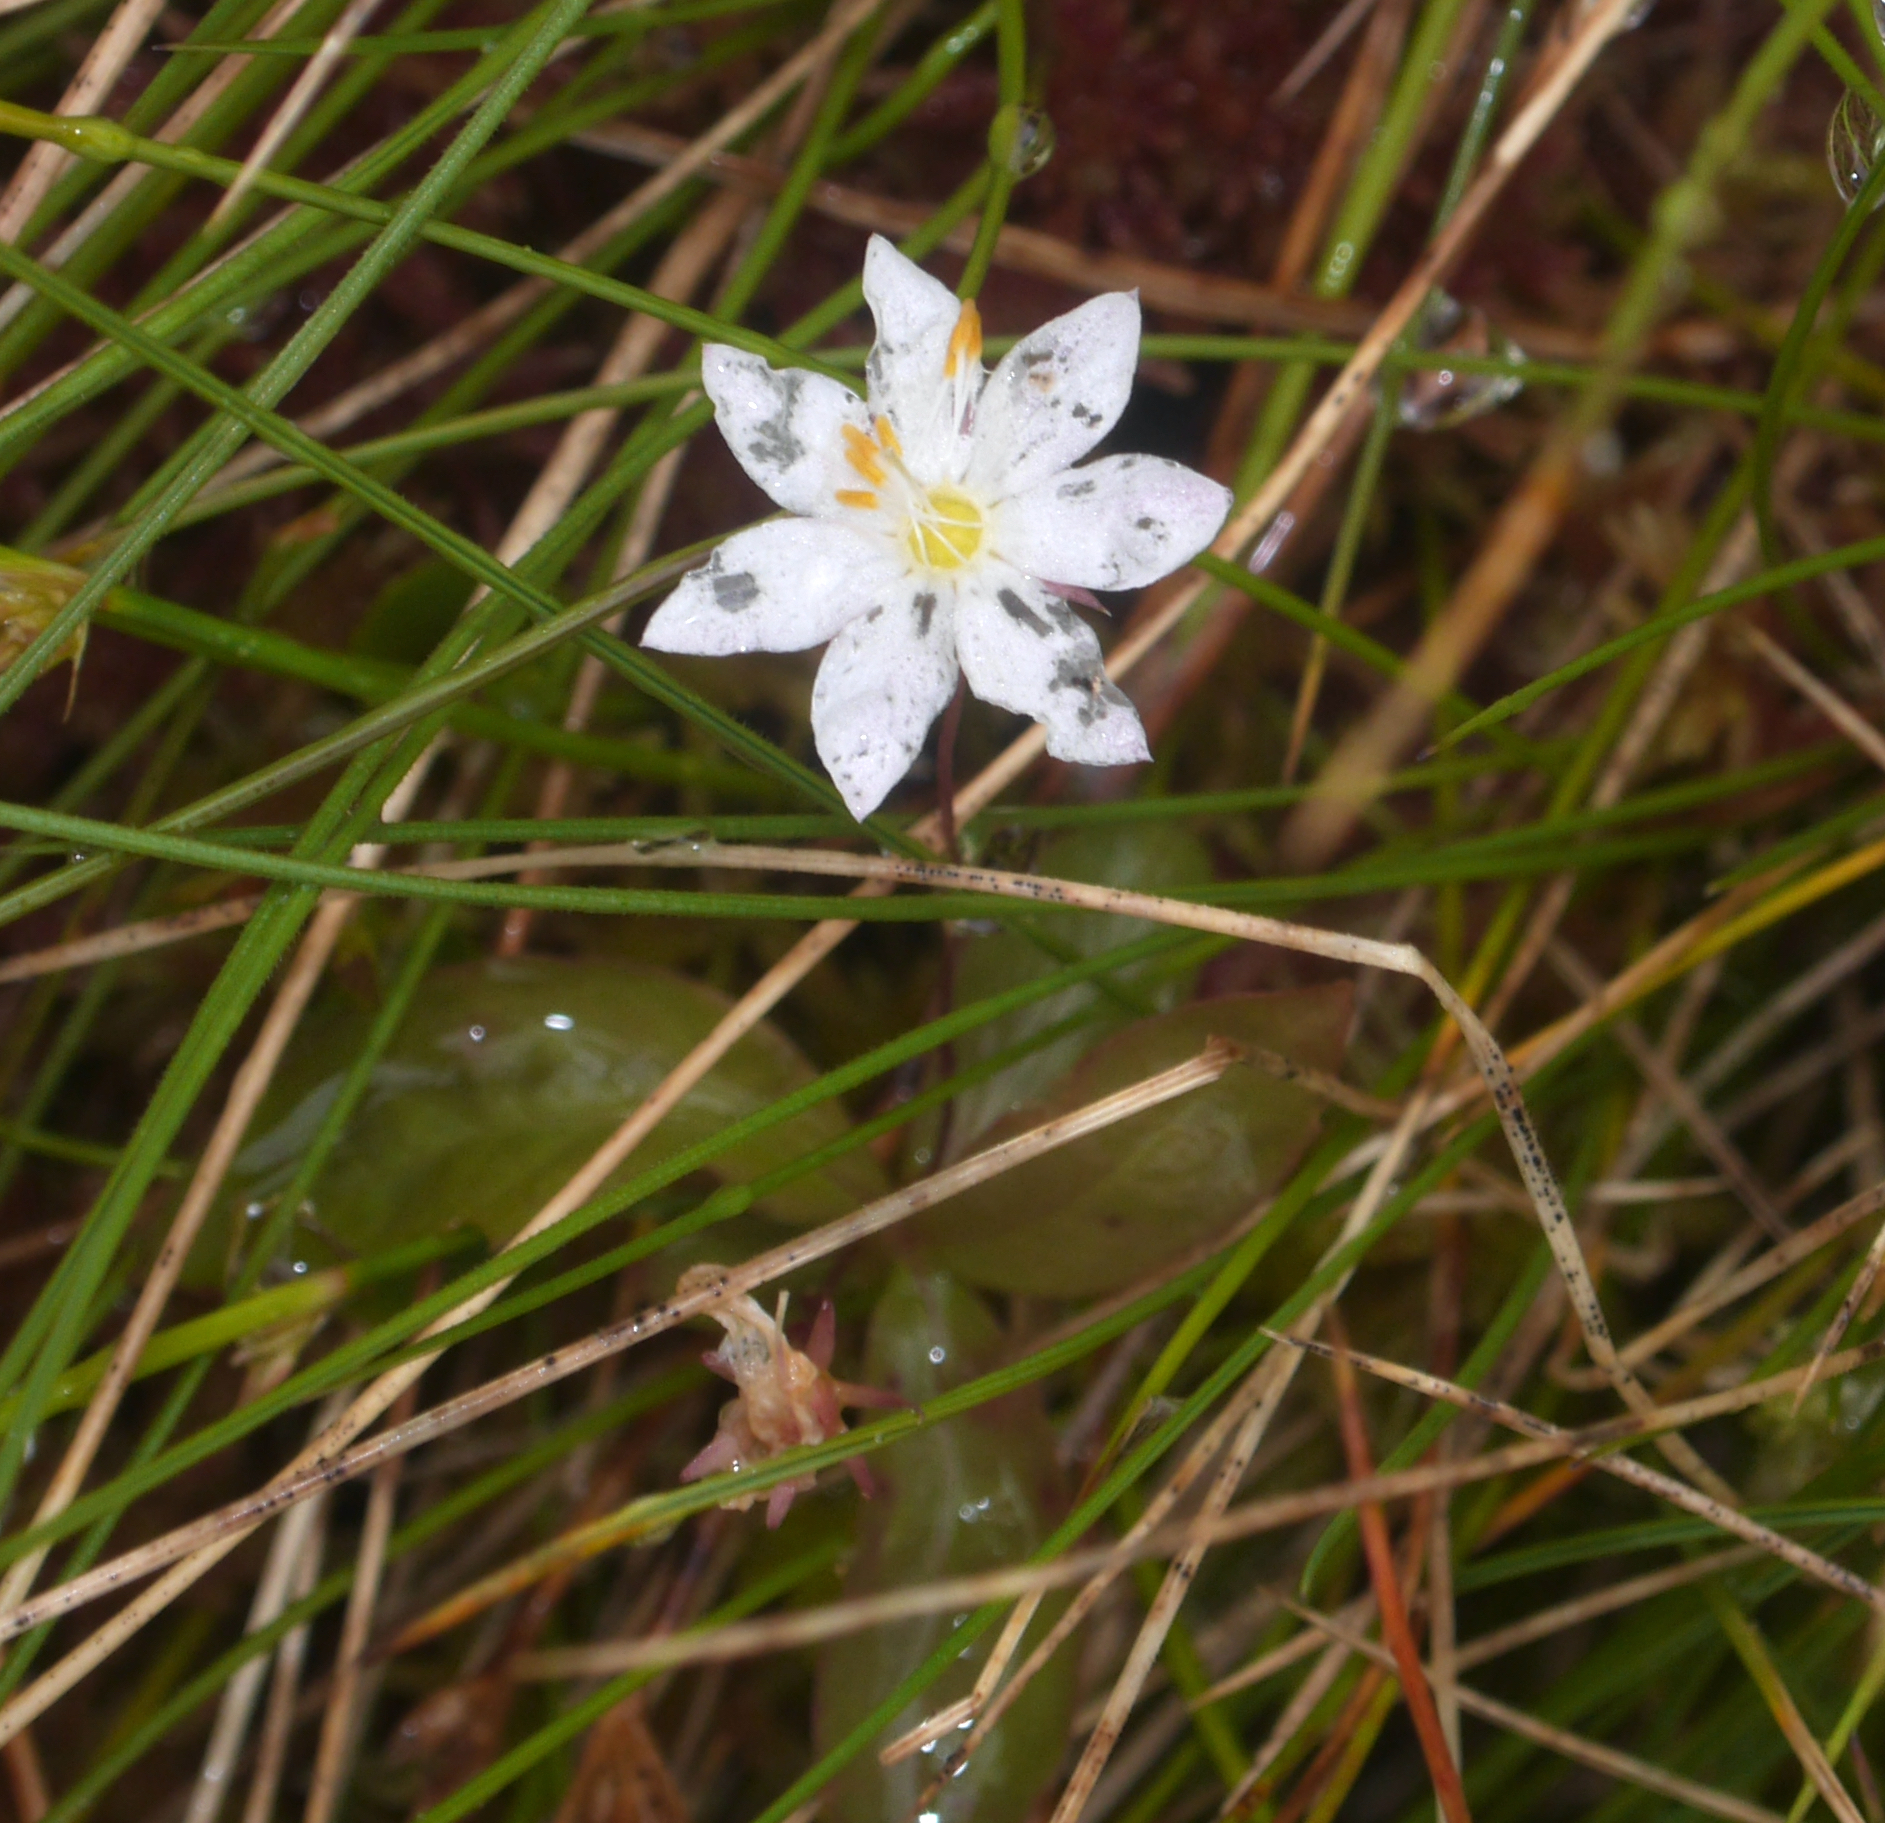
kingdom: Plantae
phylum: Tracheophyta
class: Magnoliopsida
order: Ericales
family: Primulaceae
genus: Lysimachia
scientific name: Lysimachia europaea
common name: Arctic starflower
